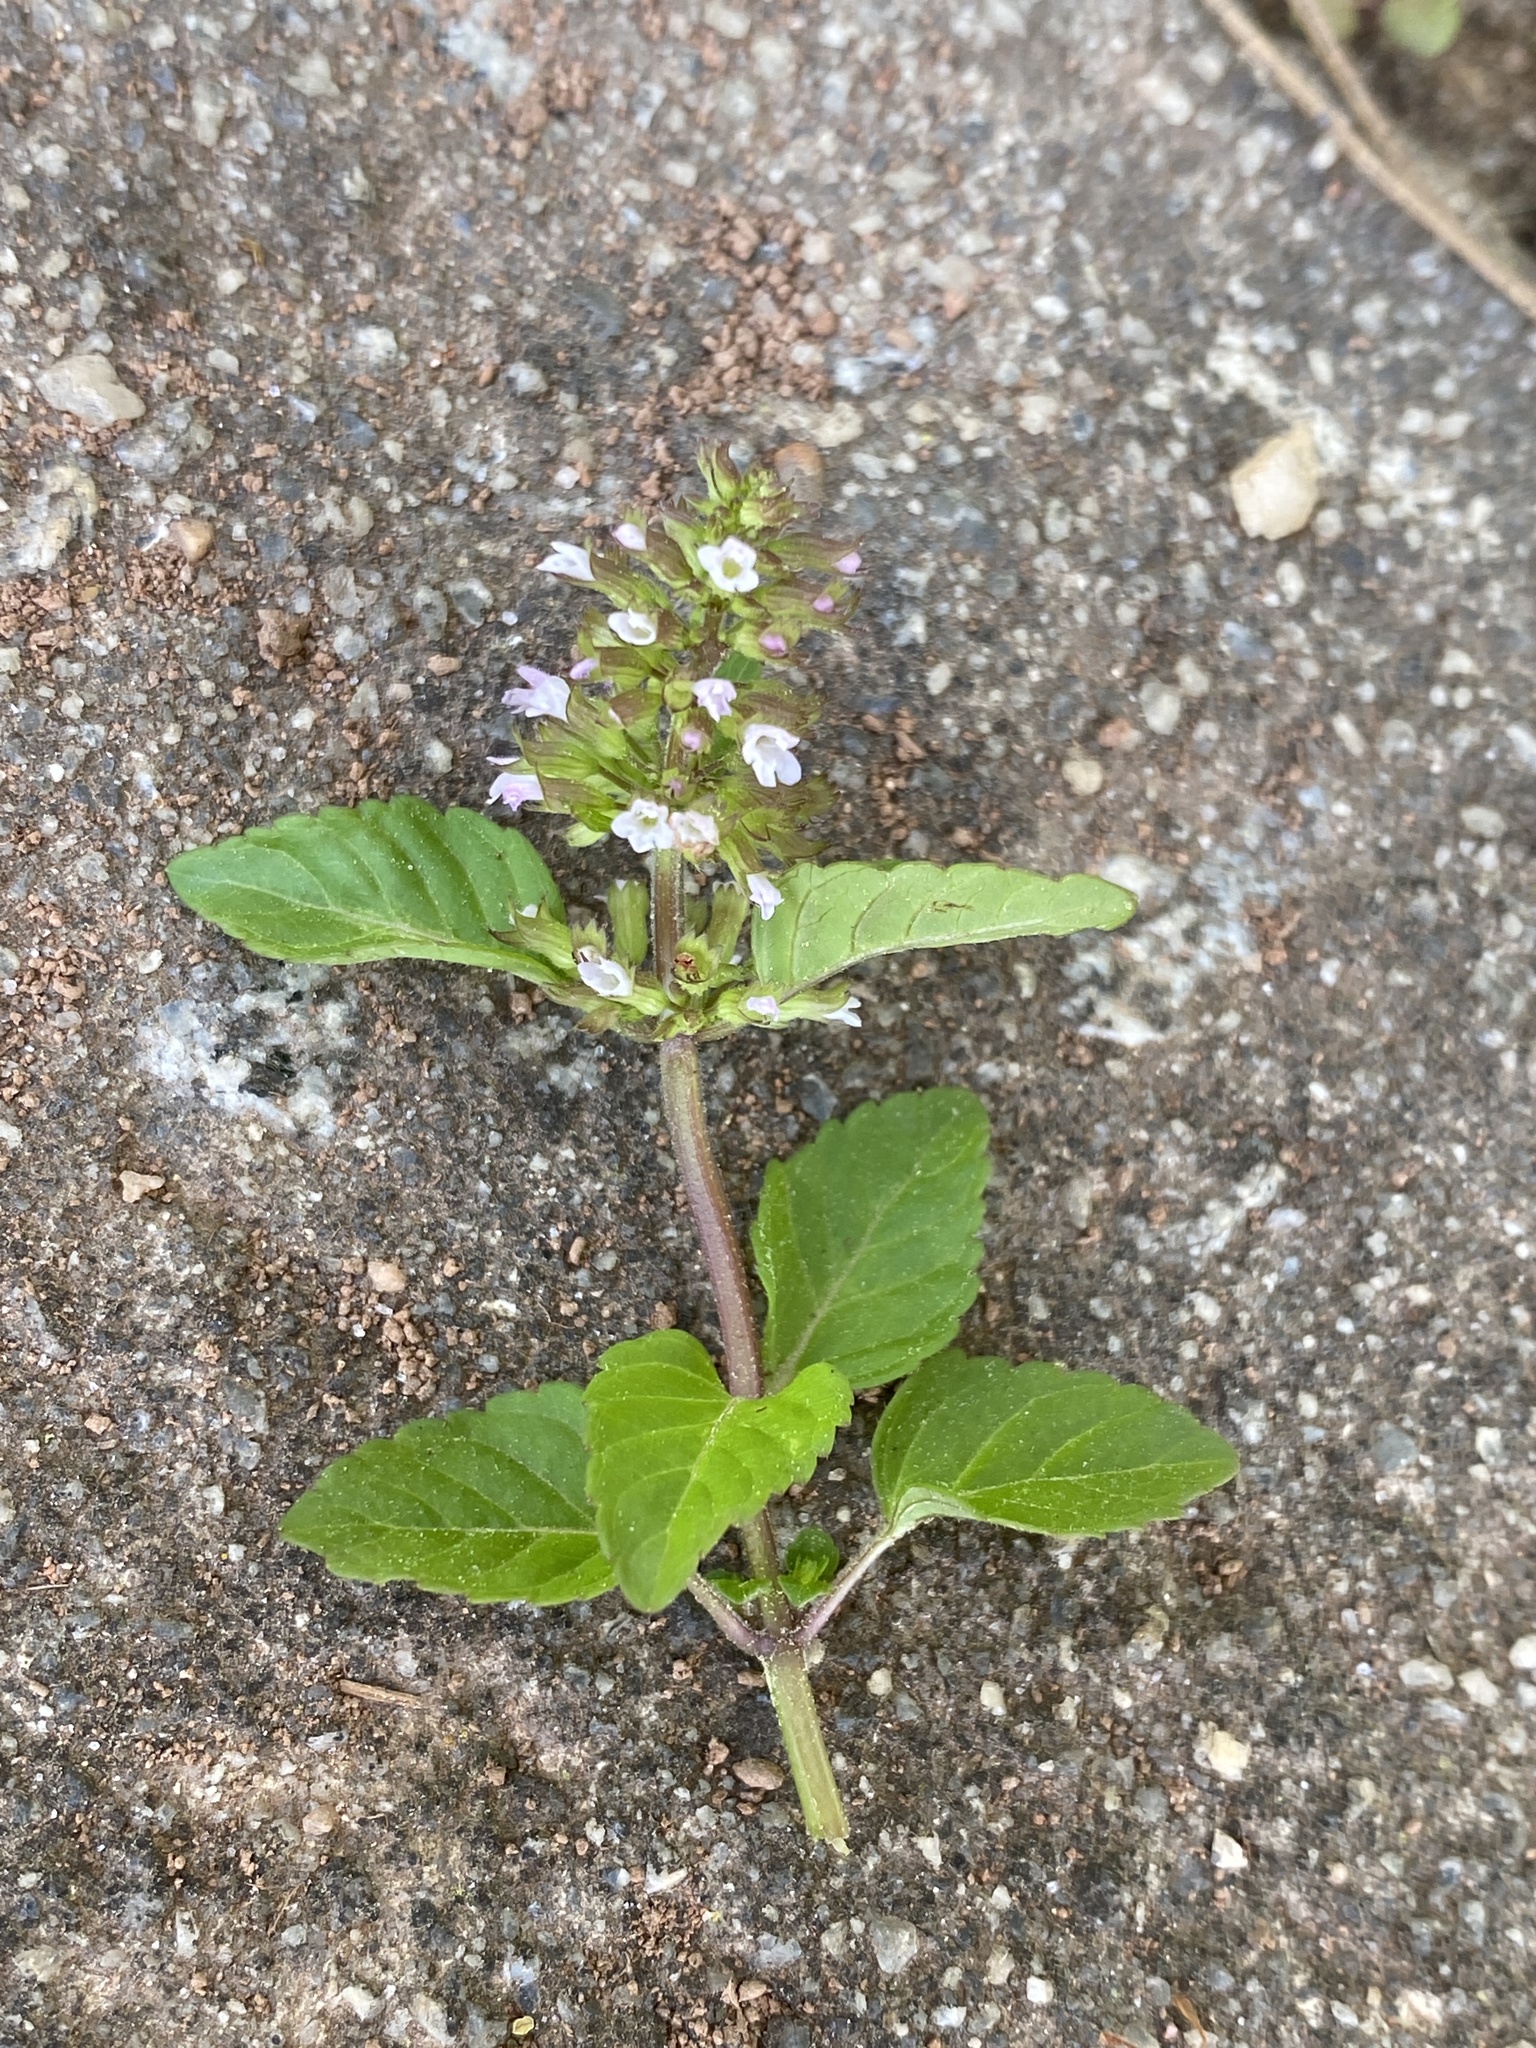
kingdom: Plantae
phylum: Tracheophyta
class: Magnoliopsida
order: Lamiales
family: Lamiaceae
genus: Clinopodium
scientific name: Clinopodium gracile
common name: Slender wild basil
